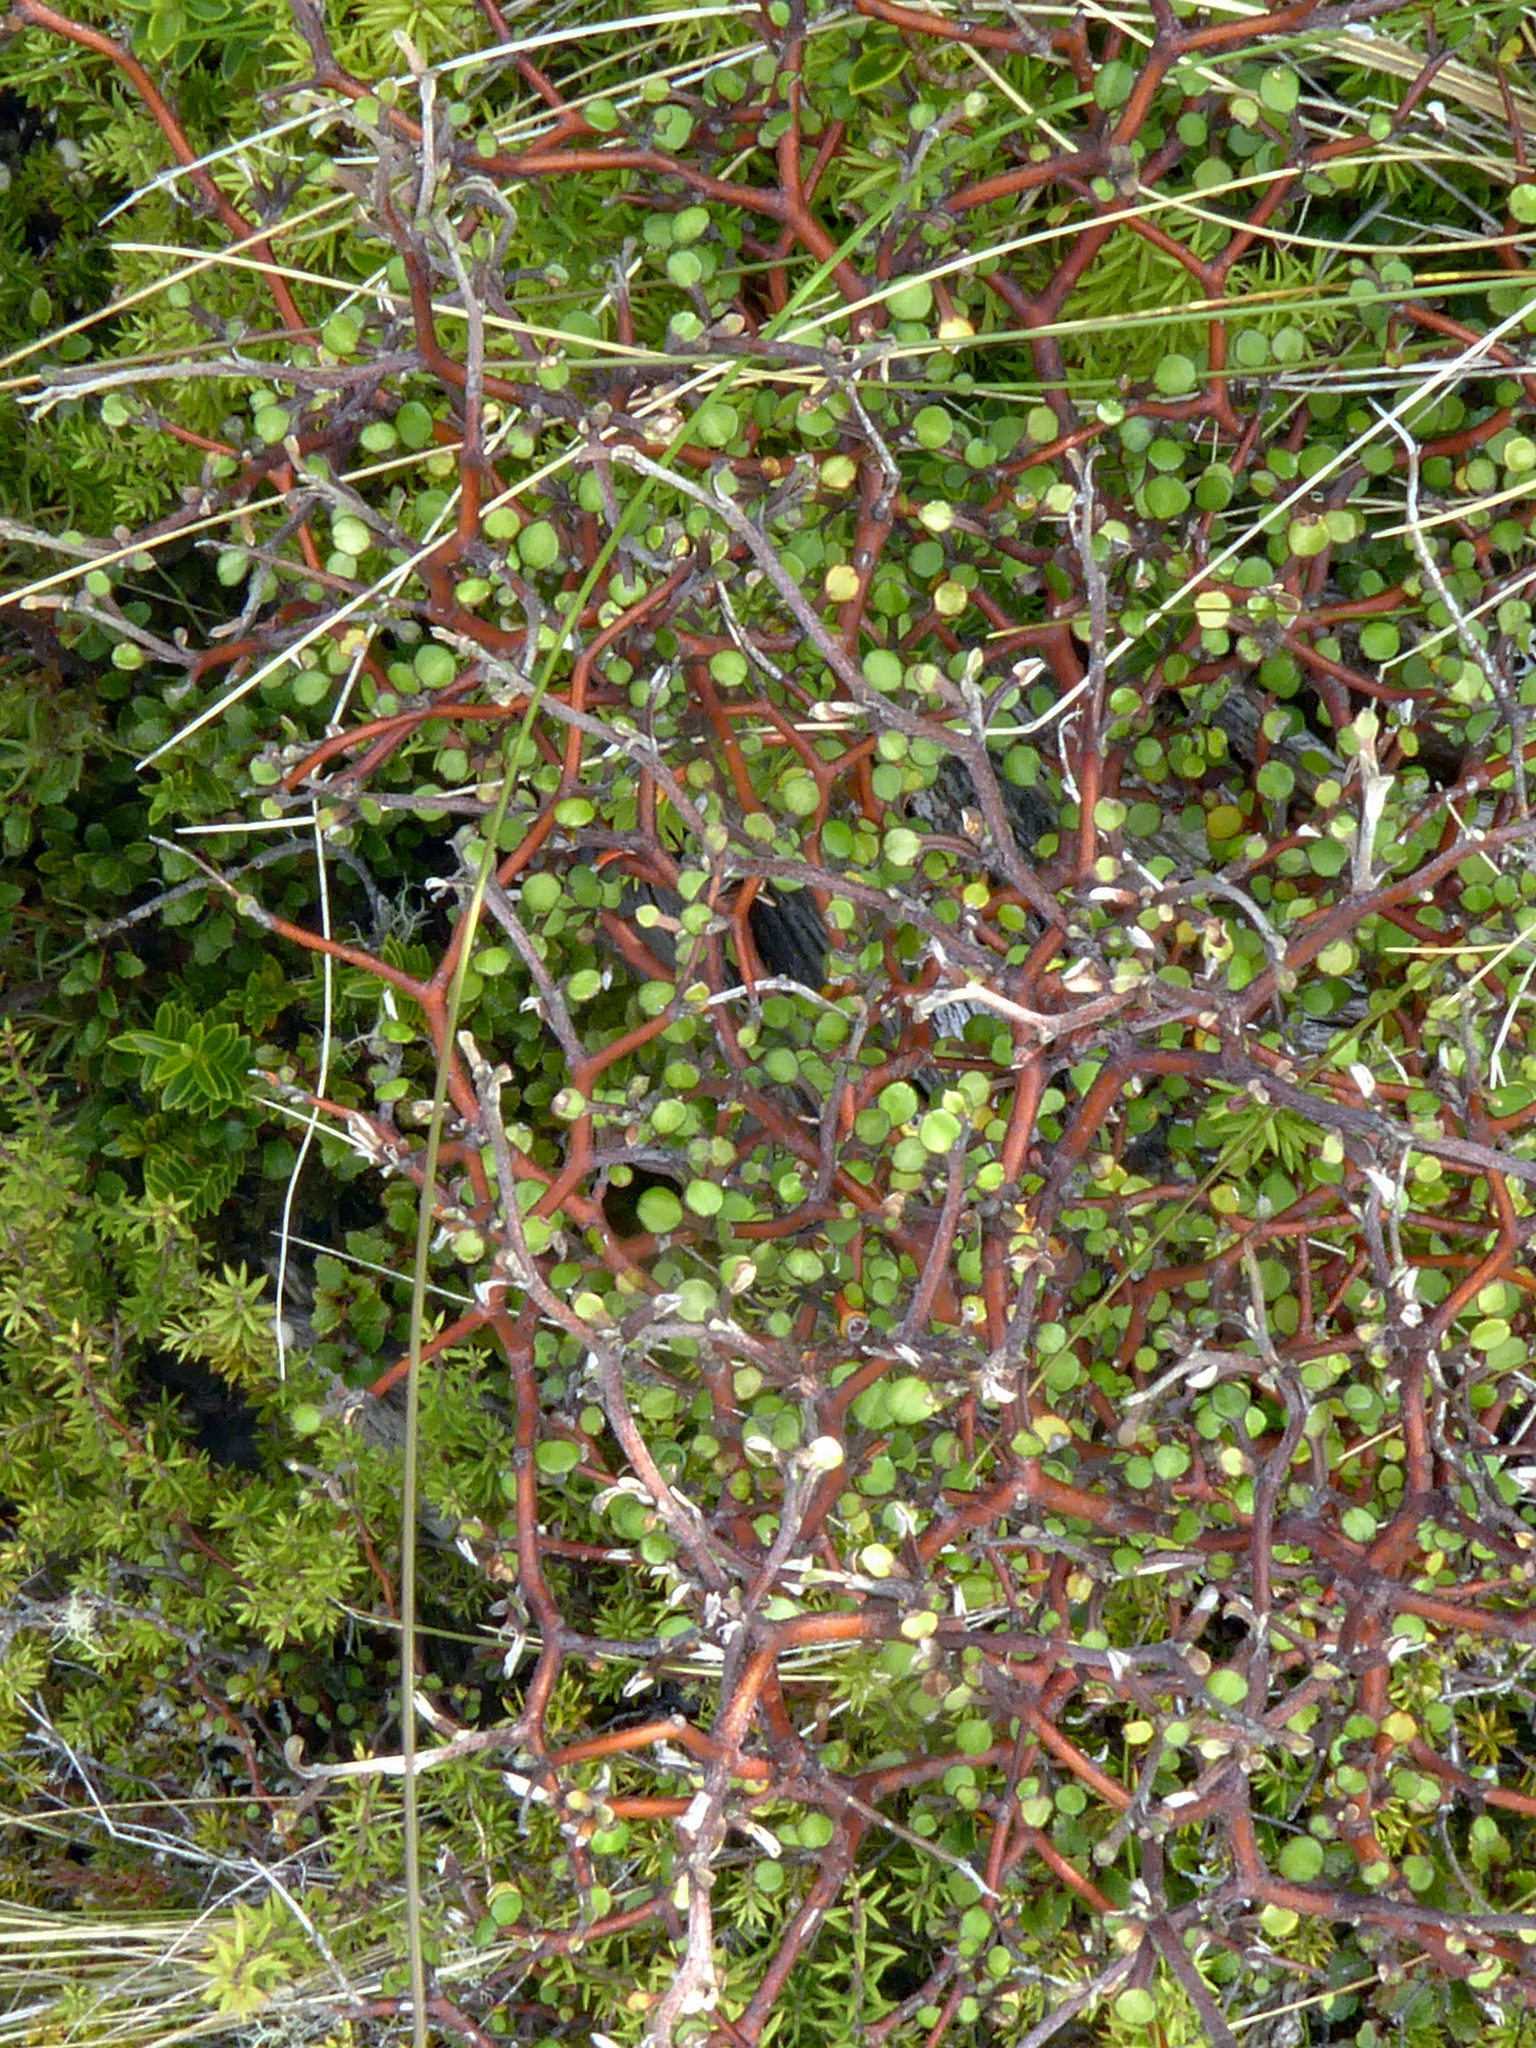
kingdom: Plantae
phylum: Tracheophyta
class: Magnoliopsida
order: Asterales
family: Argophyllaceae
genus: Corokia
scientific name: Corokia cotoneaster
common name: Wire nettingbush
